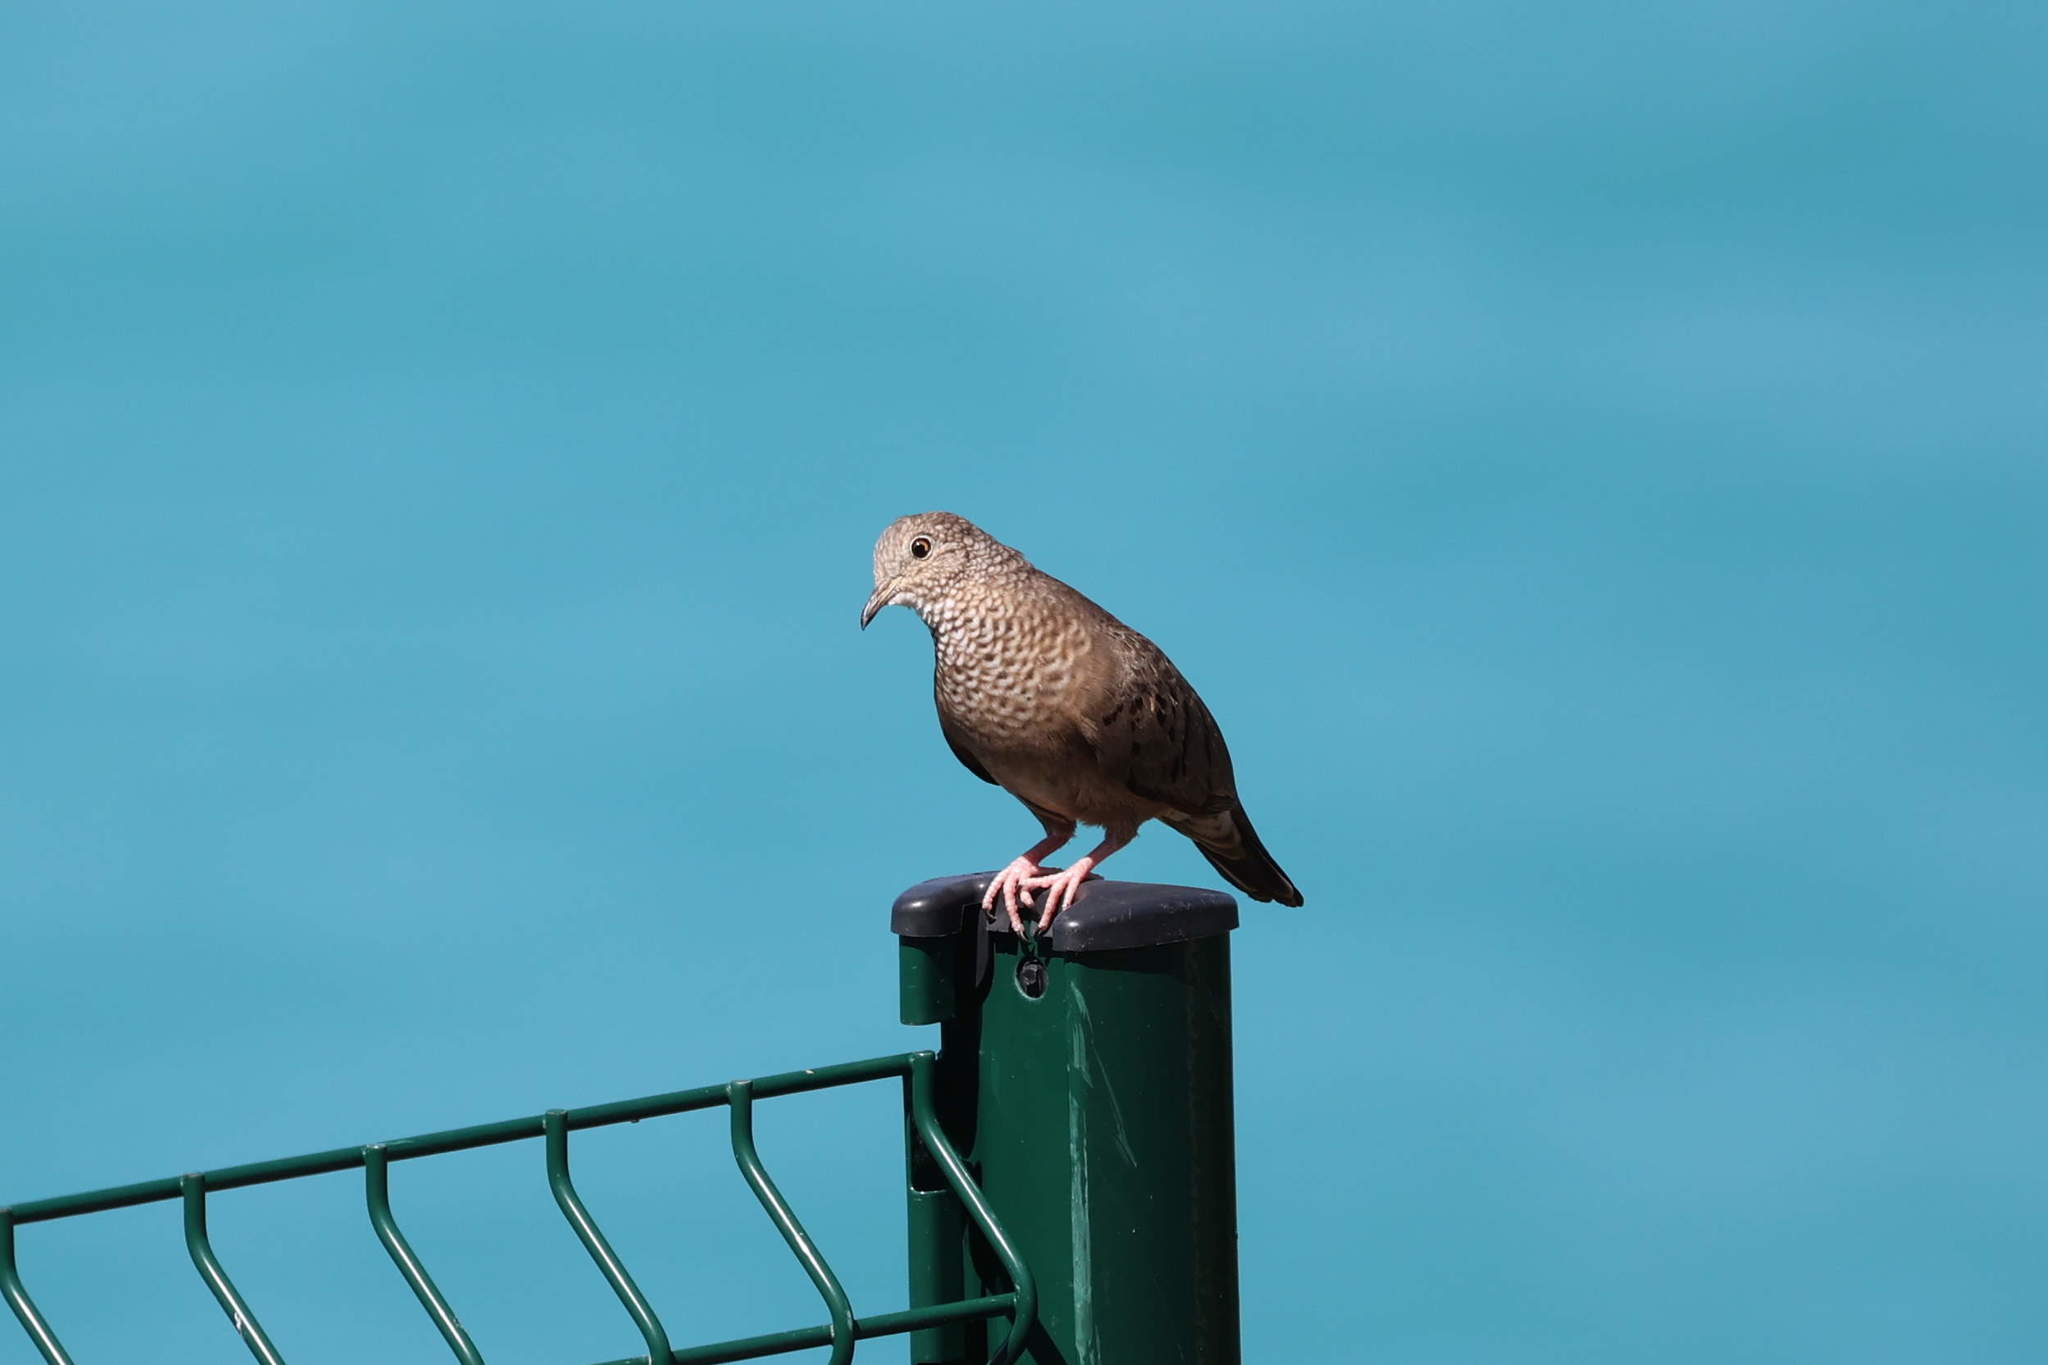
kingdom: Animalia
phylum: Chordata
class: Aves
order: Columbiformes
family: Columbidae
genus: Columbina
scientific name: Columbina passerina
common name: Common ground-dove
